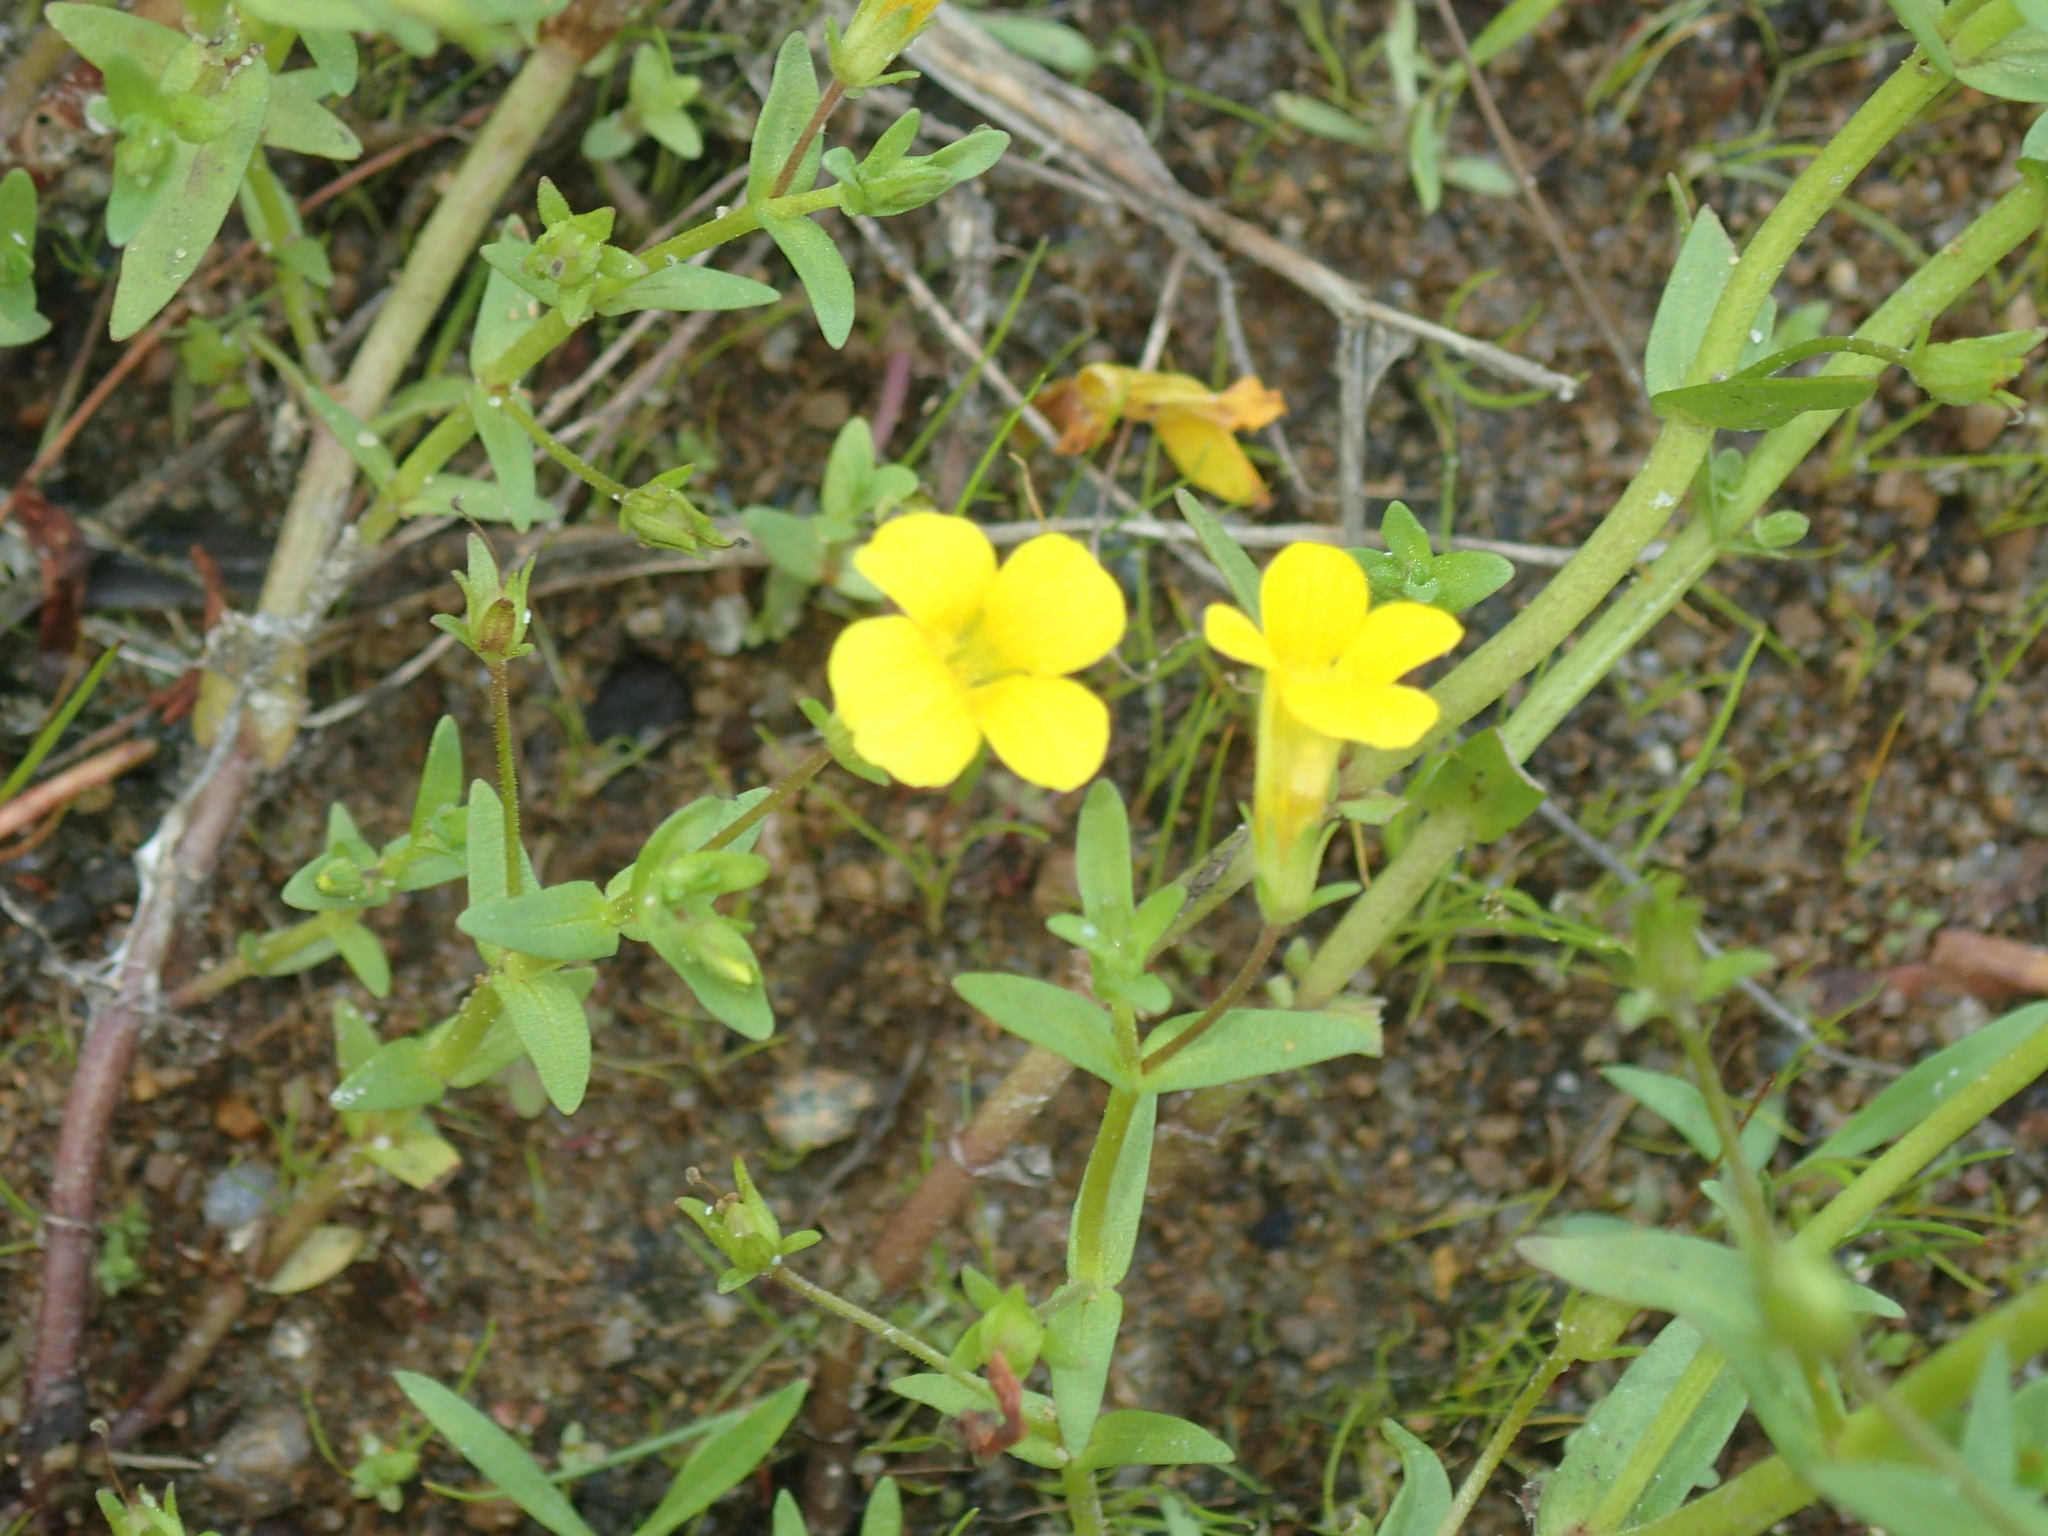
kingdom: Plantae
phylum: Tracheophyta
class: Magnoliopsida
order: Lamiales
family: Plantaginaceae
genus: Gratiola
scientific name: Gratiola lutea
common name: Golden hedge-hyssop
